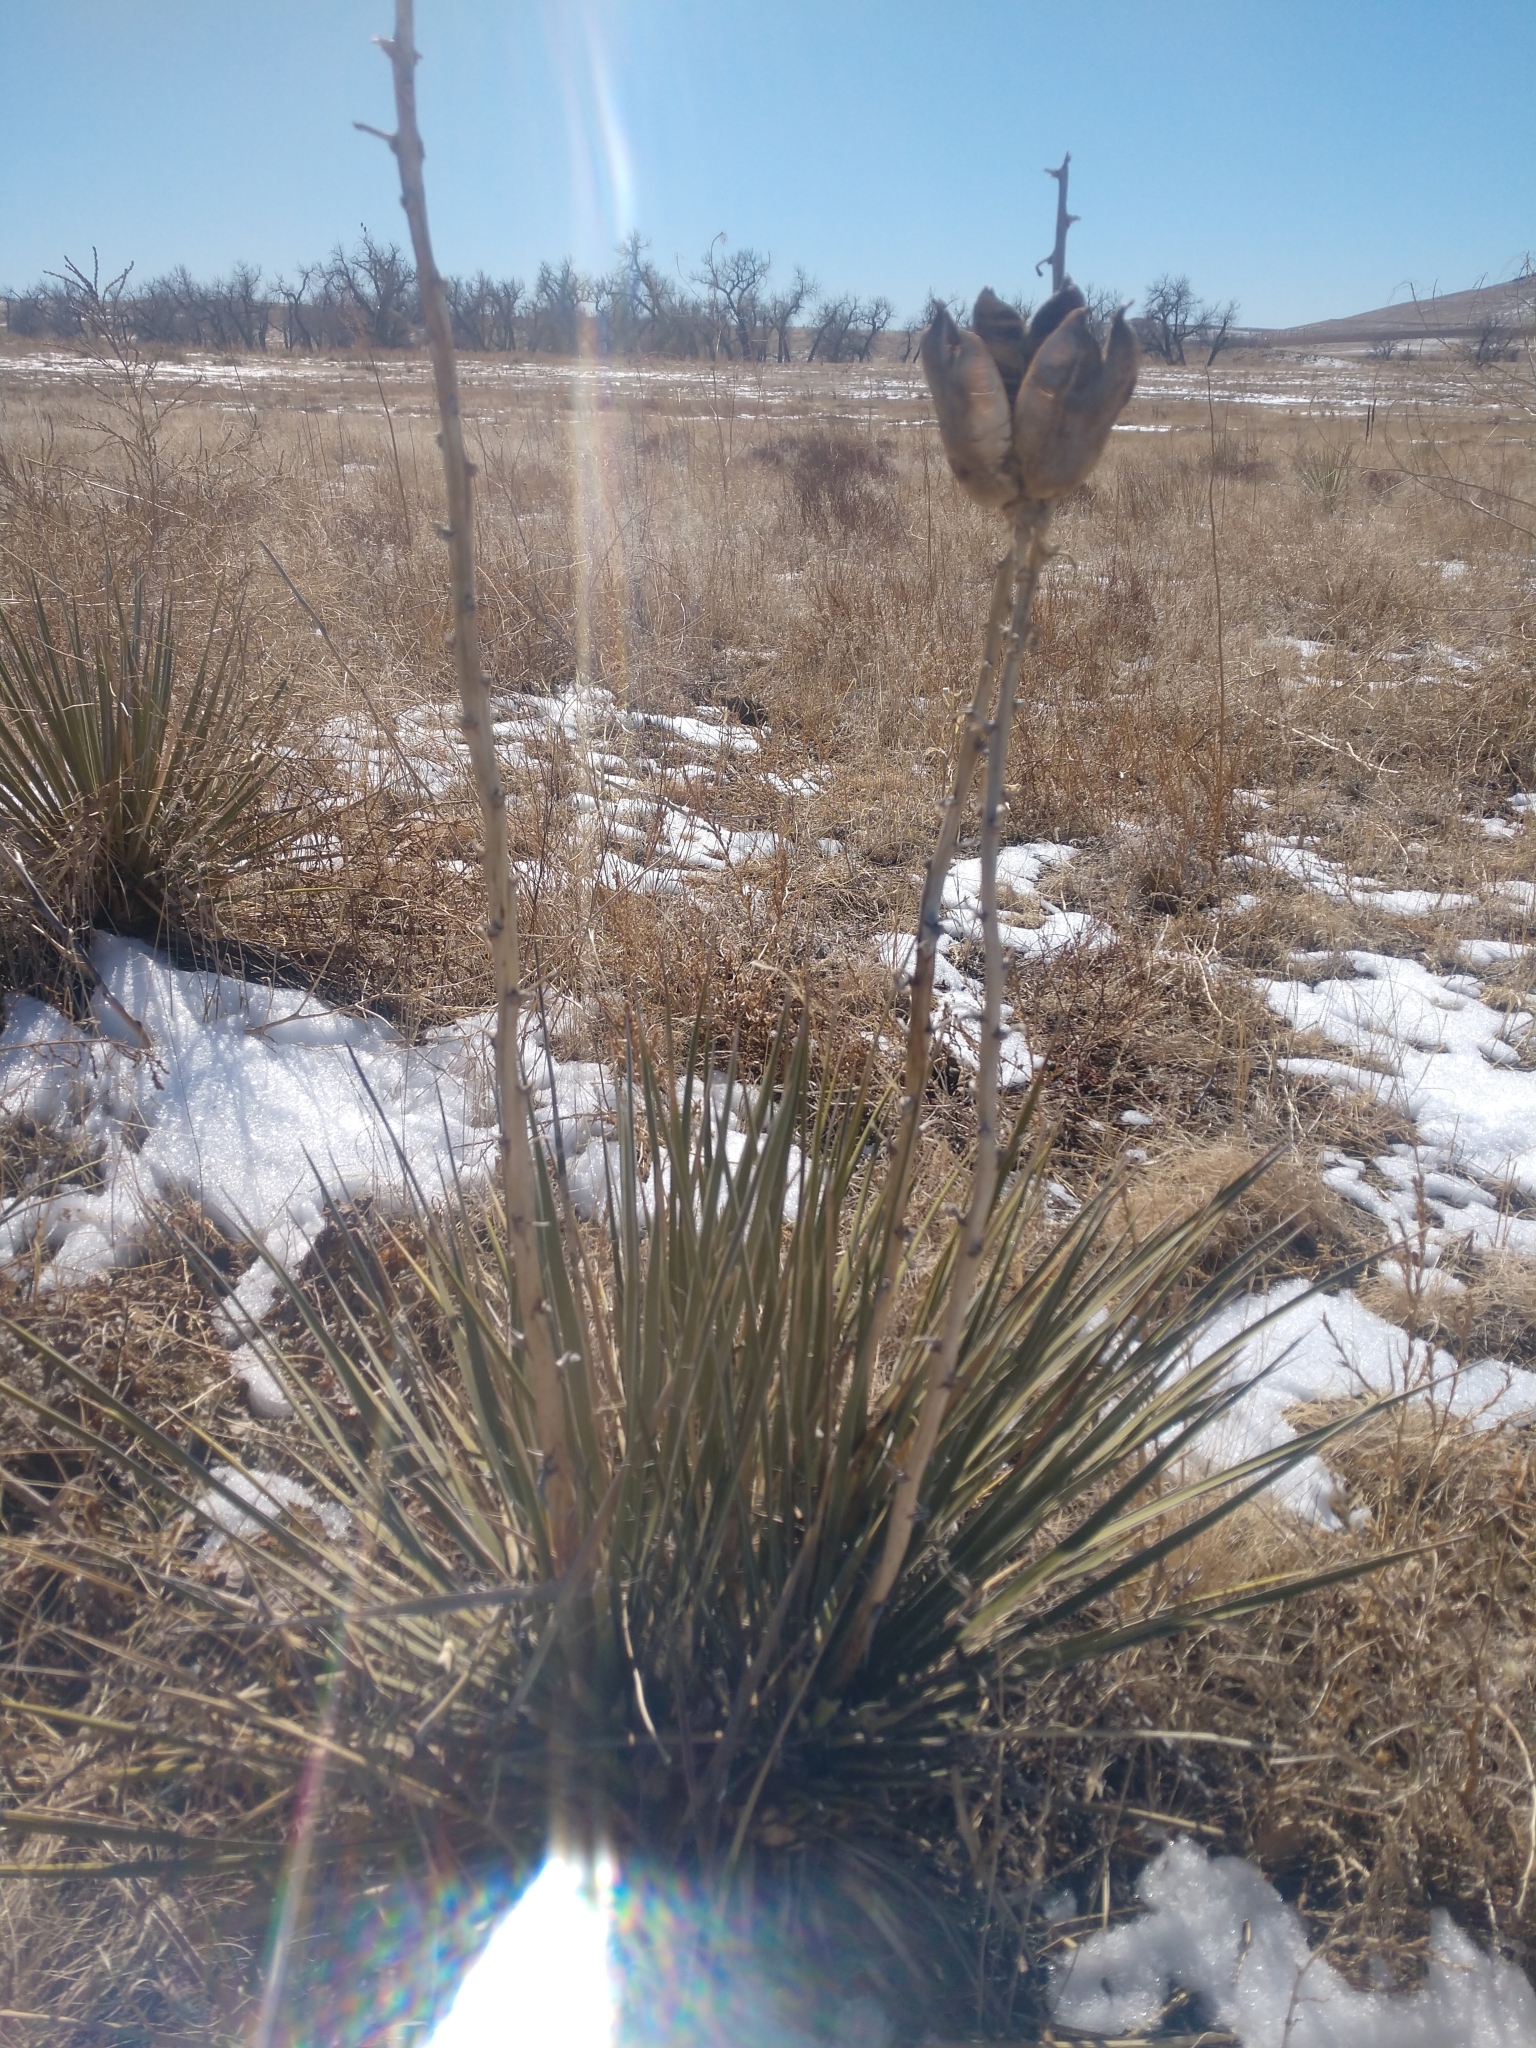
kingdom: Plantae
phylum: Tracheophyta
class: Liliopsida
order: Asparagales
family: Asparagaceae
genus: Yucca
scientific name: Yucca glauca
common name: Great plains yucca
